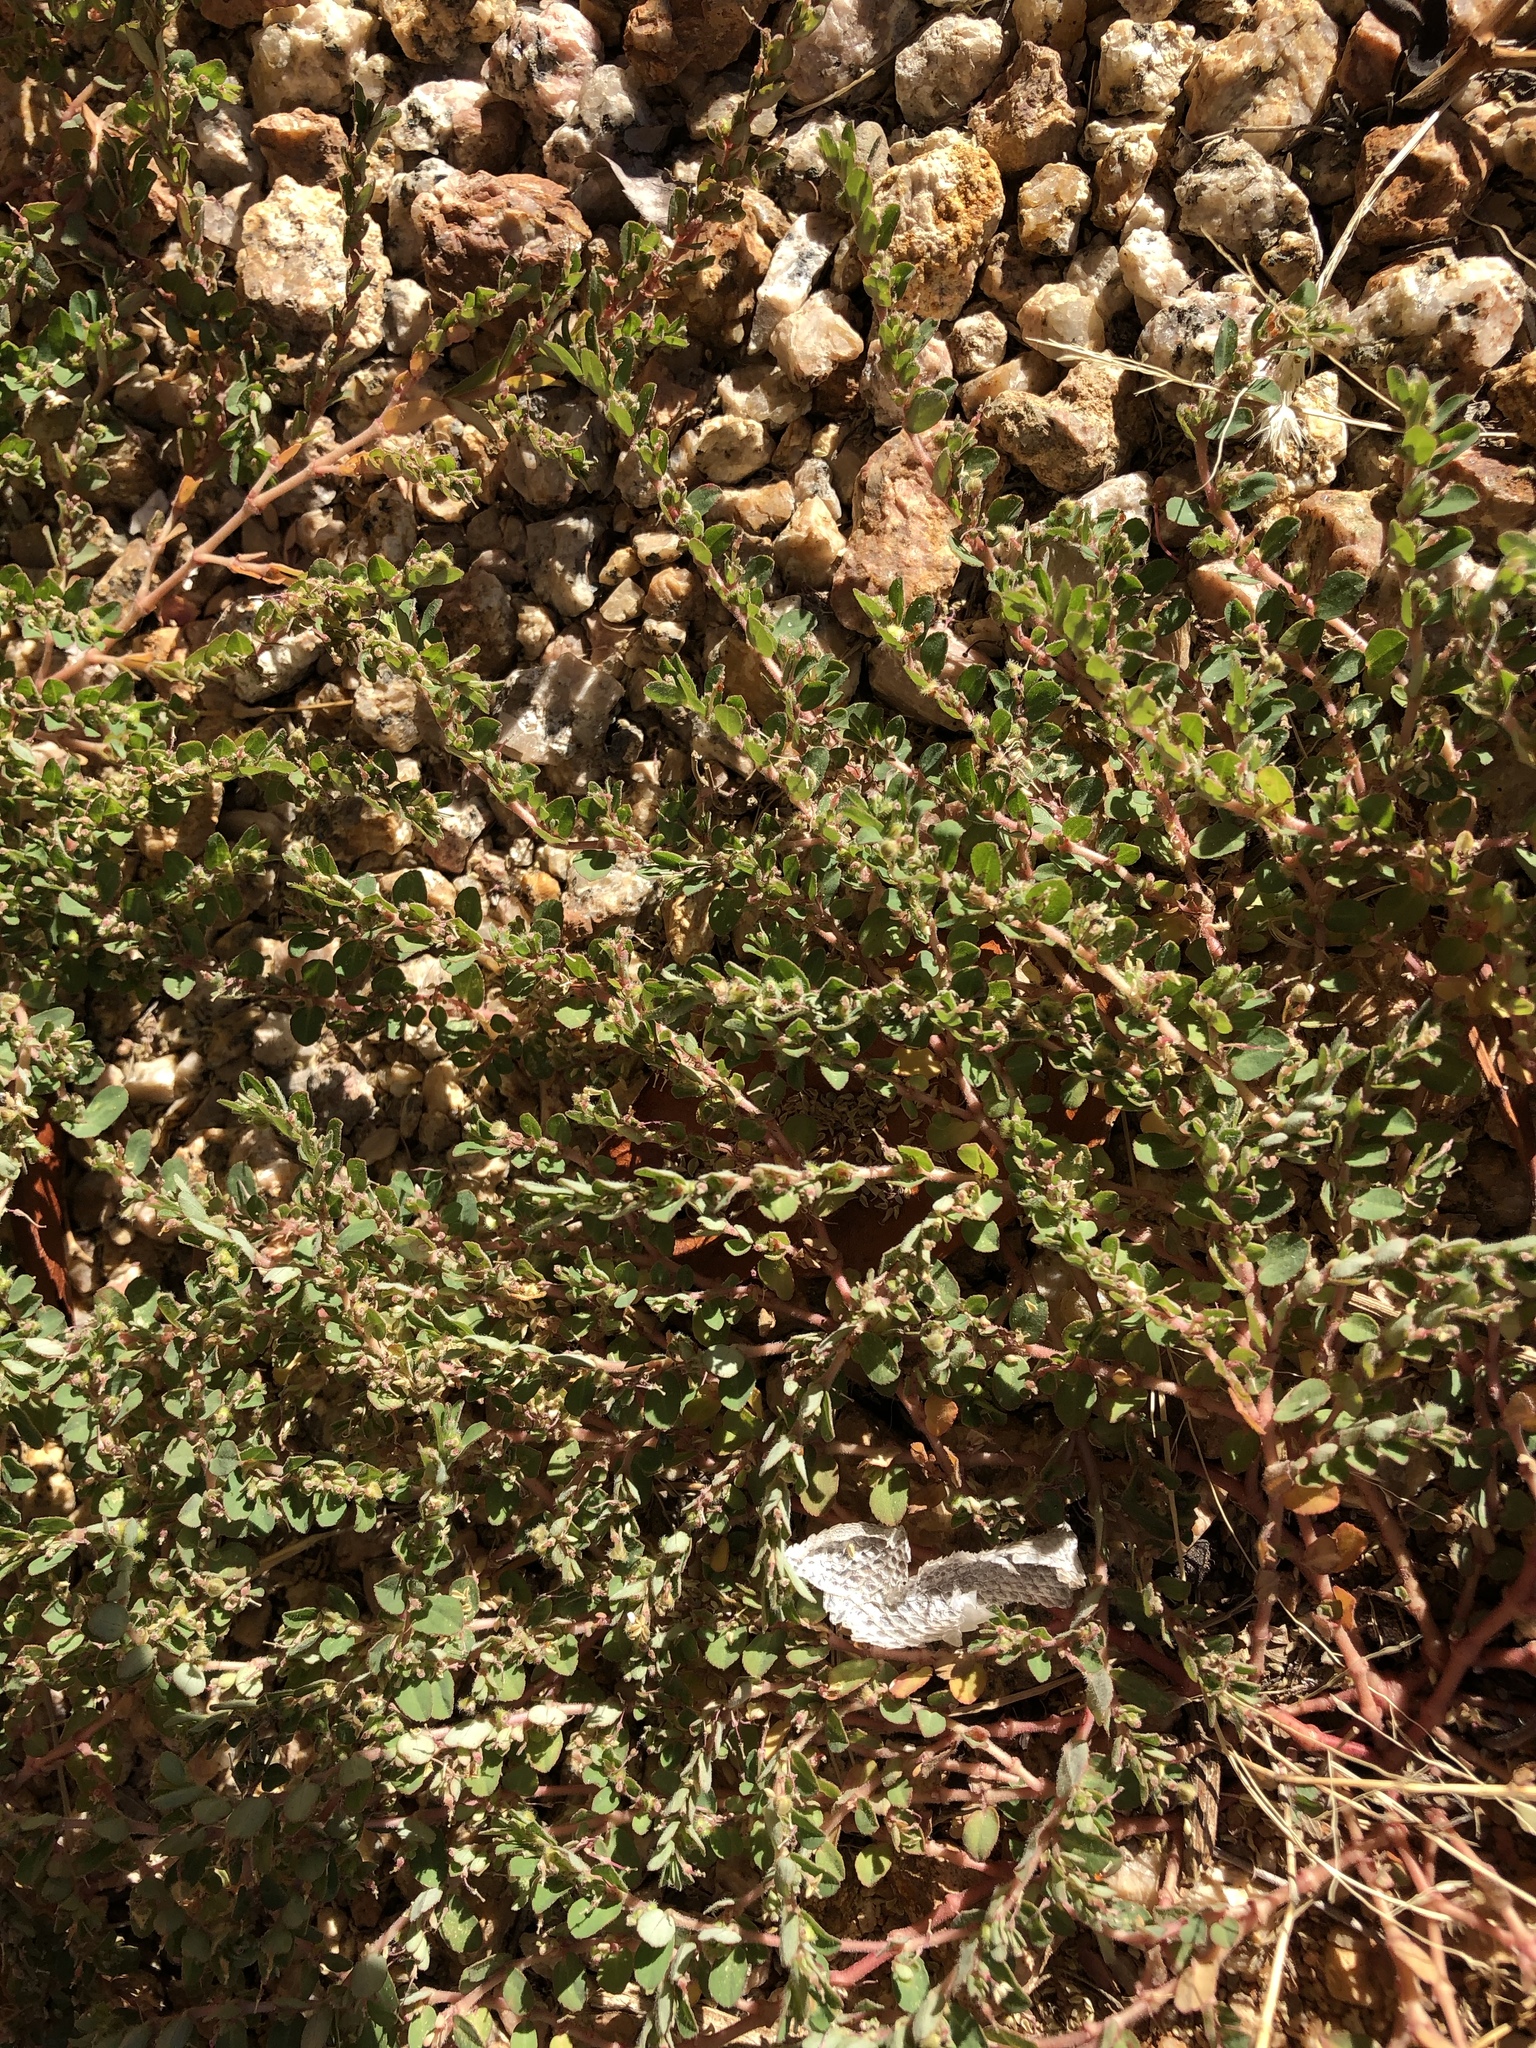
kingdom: Plantae
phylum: Tracheophyta
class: Magnoliopsida
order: Malpighiales
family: Euphorbiaceae
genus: Euphorbia
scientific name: Euphorbia prostrata
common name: Prostrate sandmat
